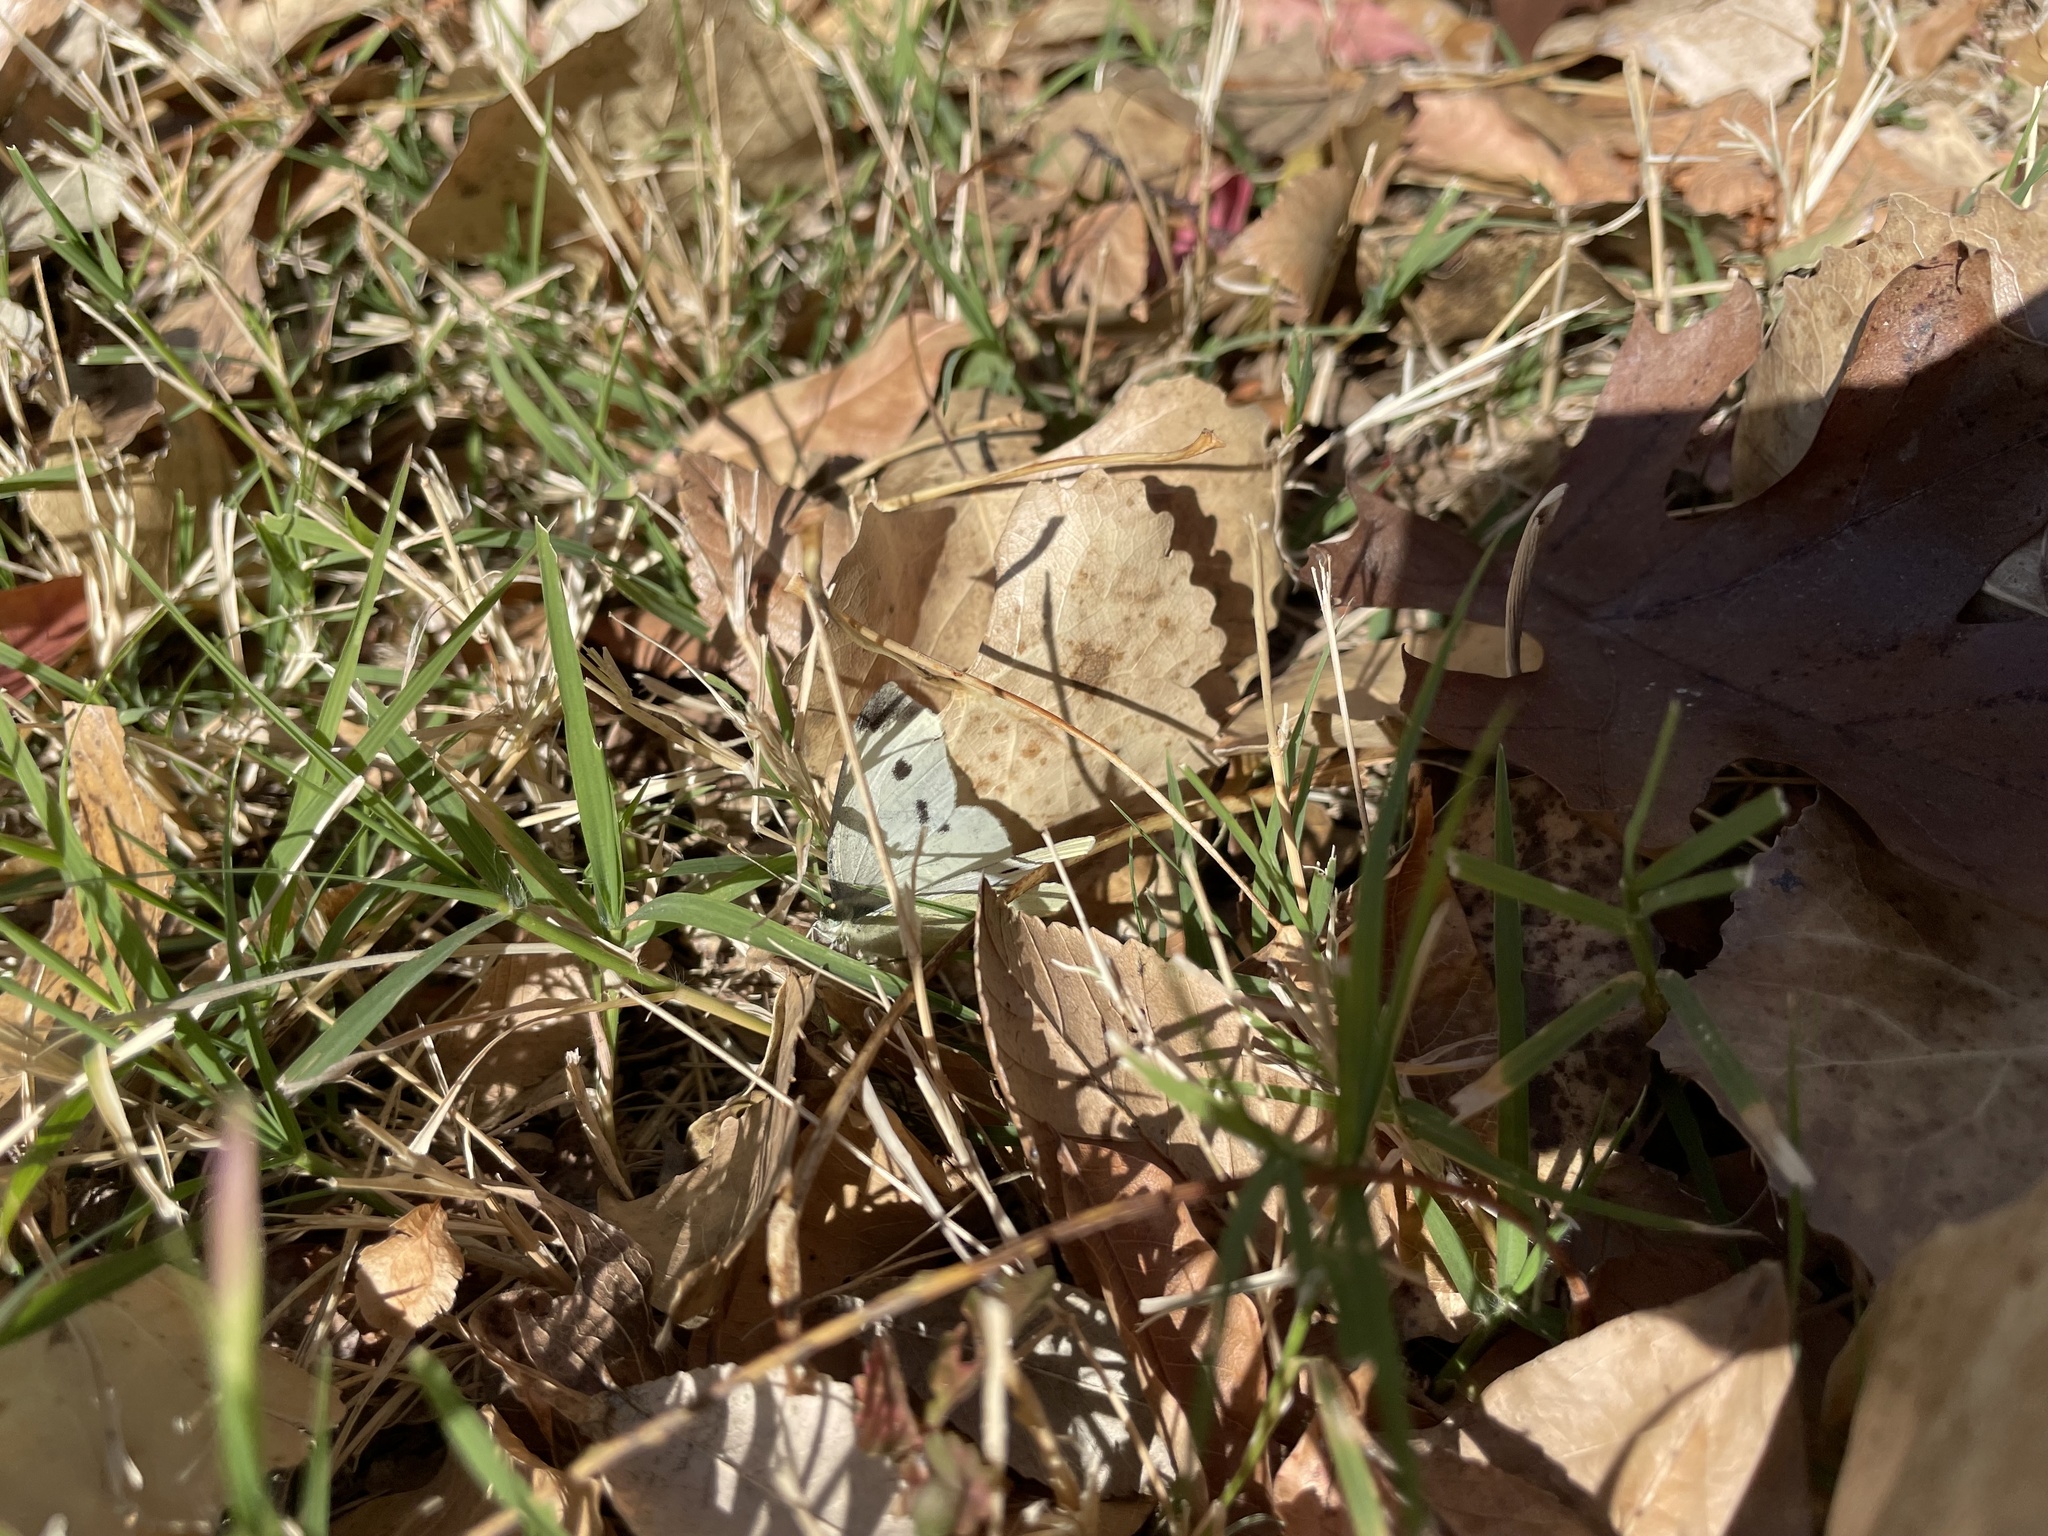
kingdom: Animalia
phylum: Arthropoda
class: Insecta
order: Lepidoptera
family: Pieridae
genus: Pieris
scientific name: Pieris rapae
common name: Small white
